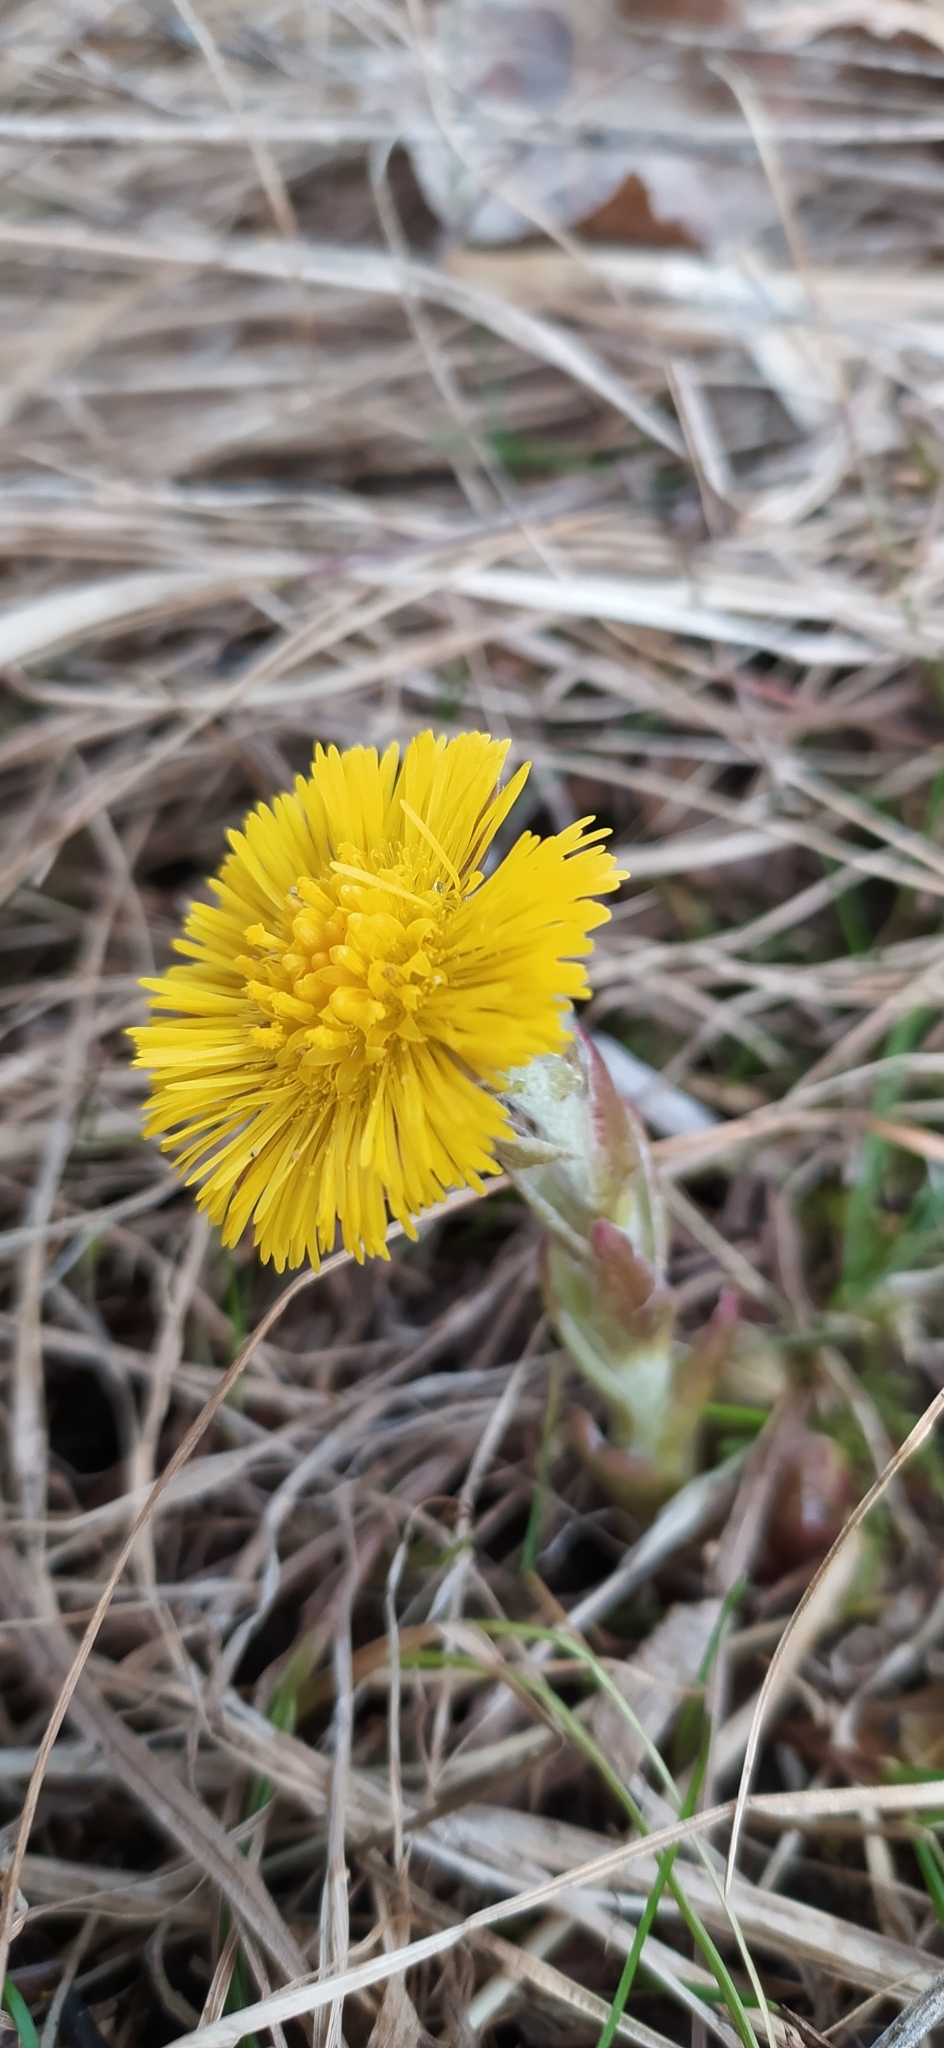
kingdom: Plantae
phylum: Tracheophyta
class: Magnoliopsida
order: Asterales
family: Asteraceae
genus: Tussilago
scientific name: Tussilago farfara
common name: Coltsfoot
